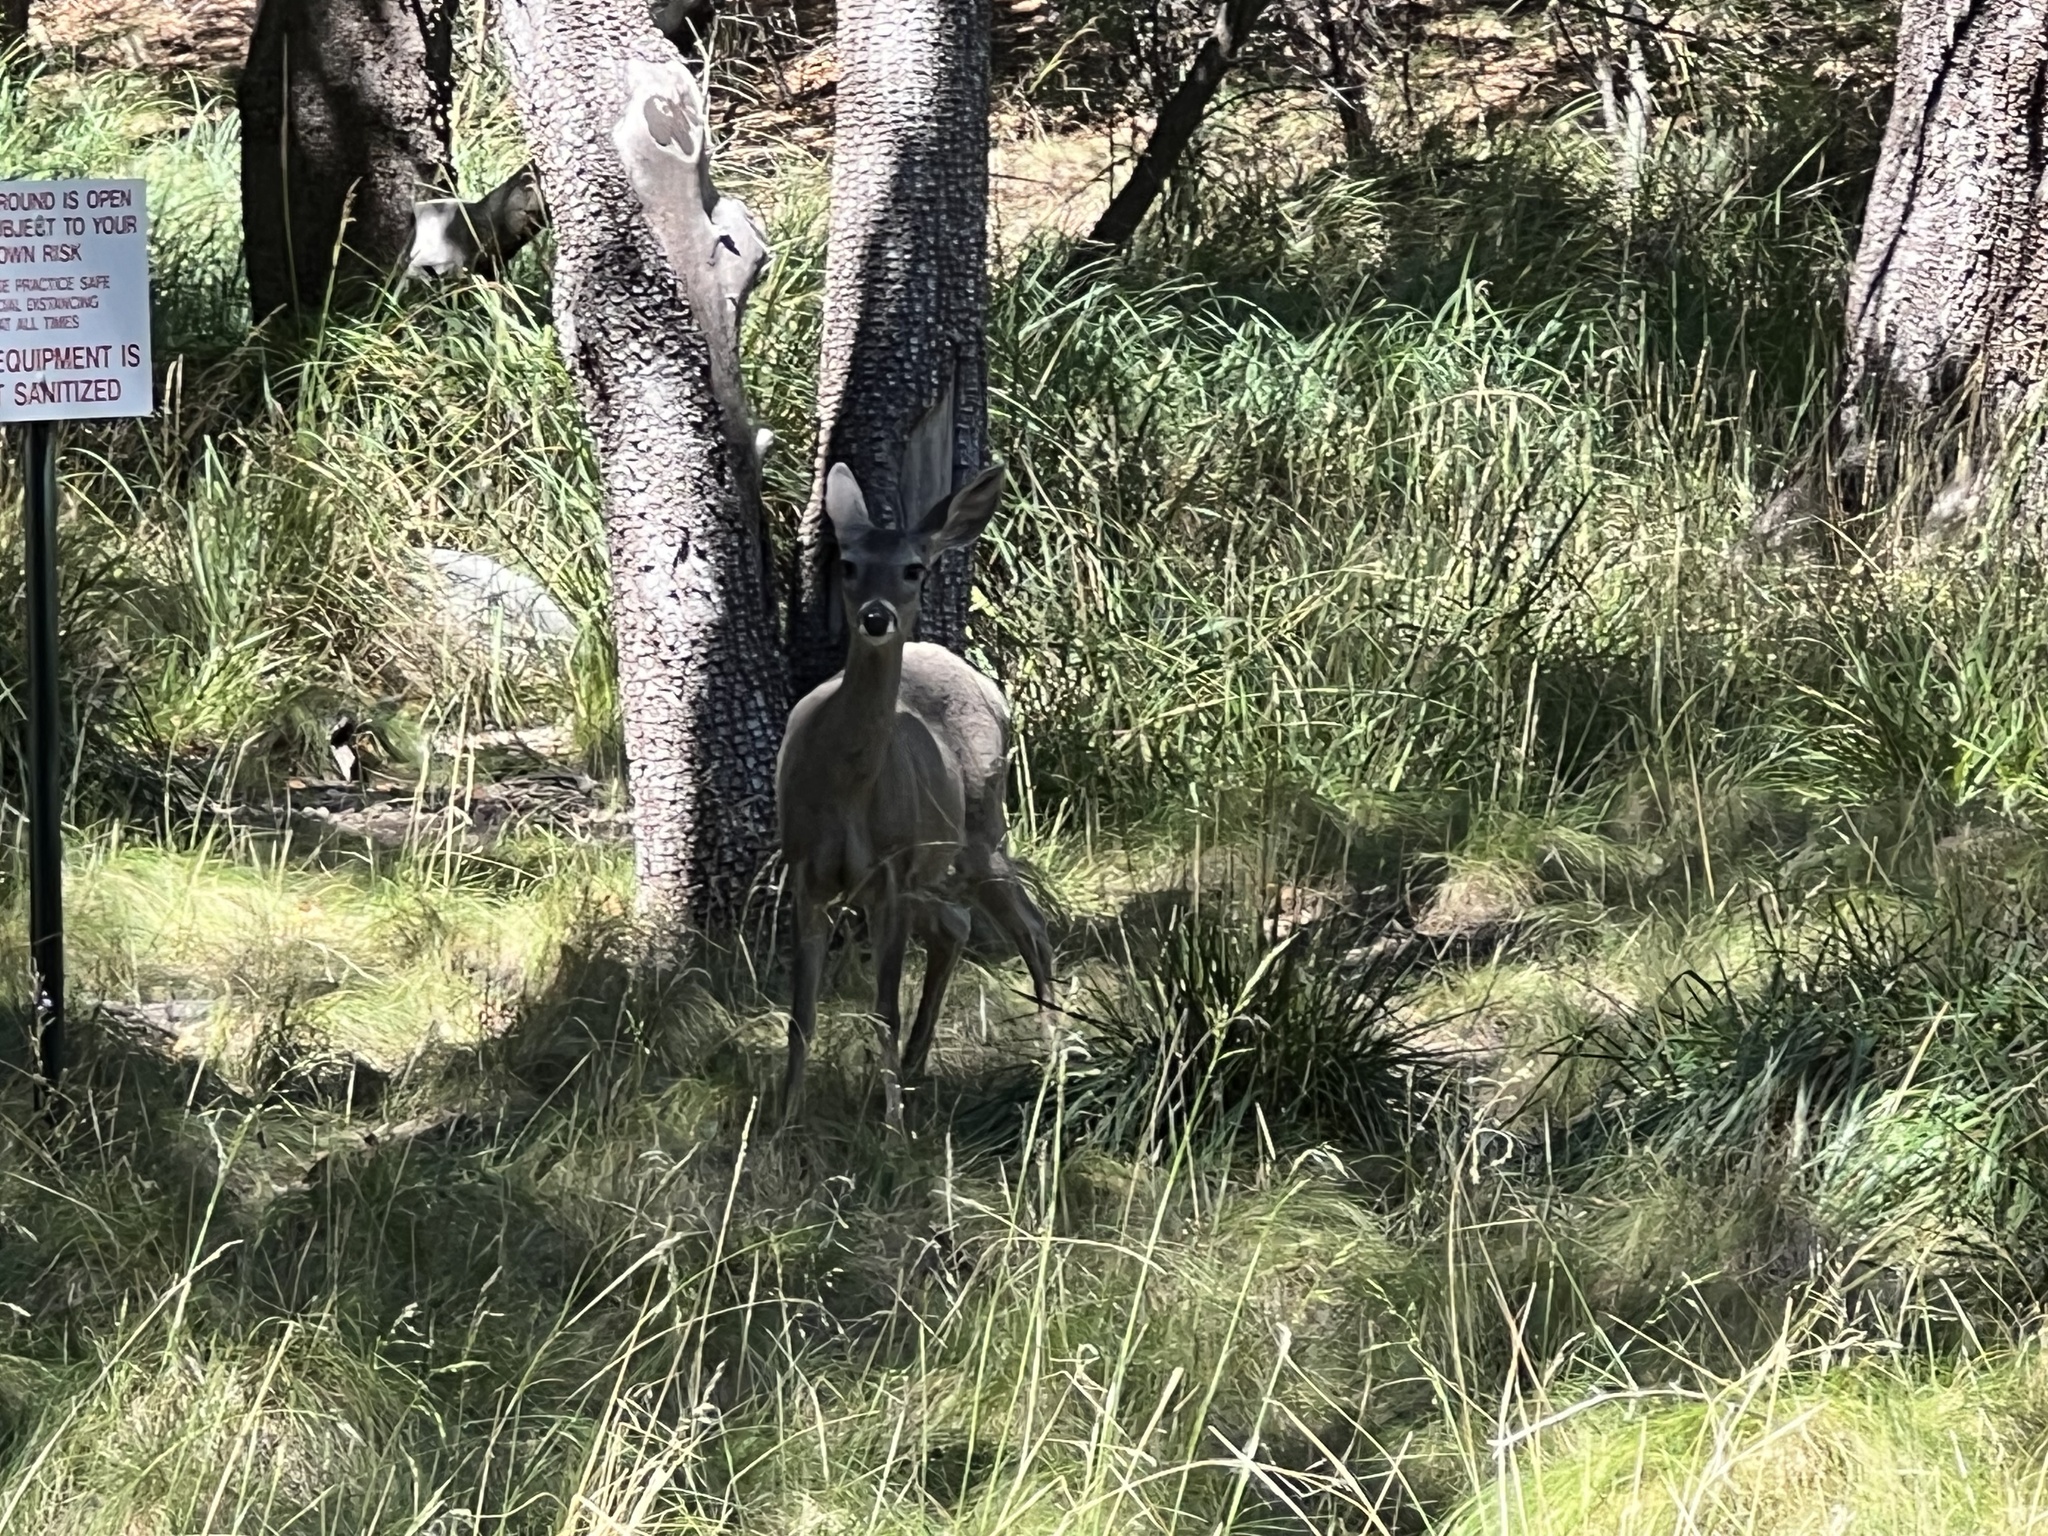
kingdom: Animalia
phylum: Chordata
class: Mammalia
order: Artiodactyla
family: Cervidae
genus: Odocoileus
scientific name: Odocoileus virginianus
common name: White-tailed deer
